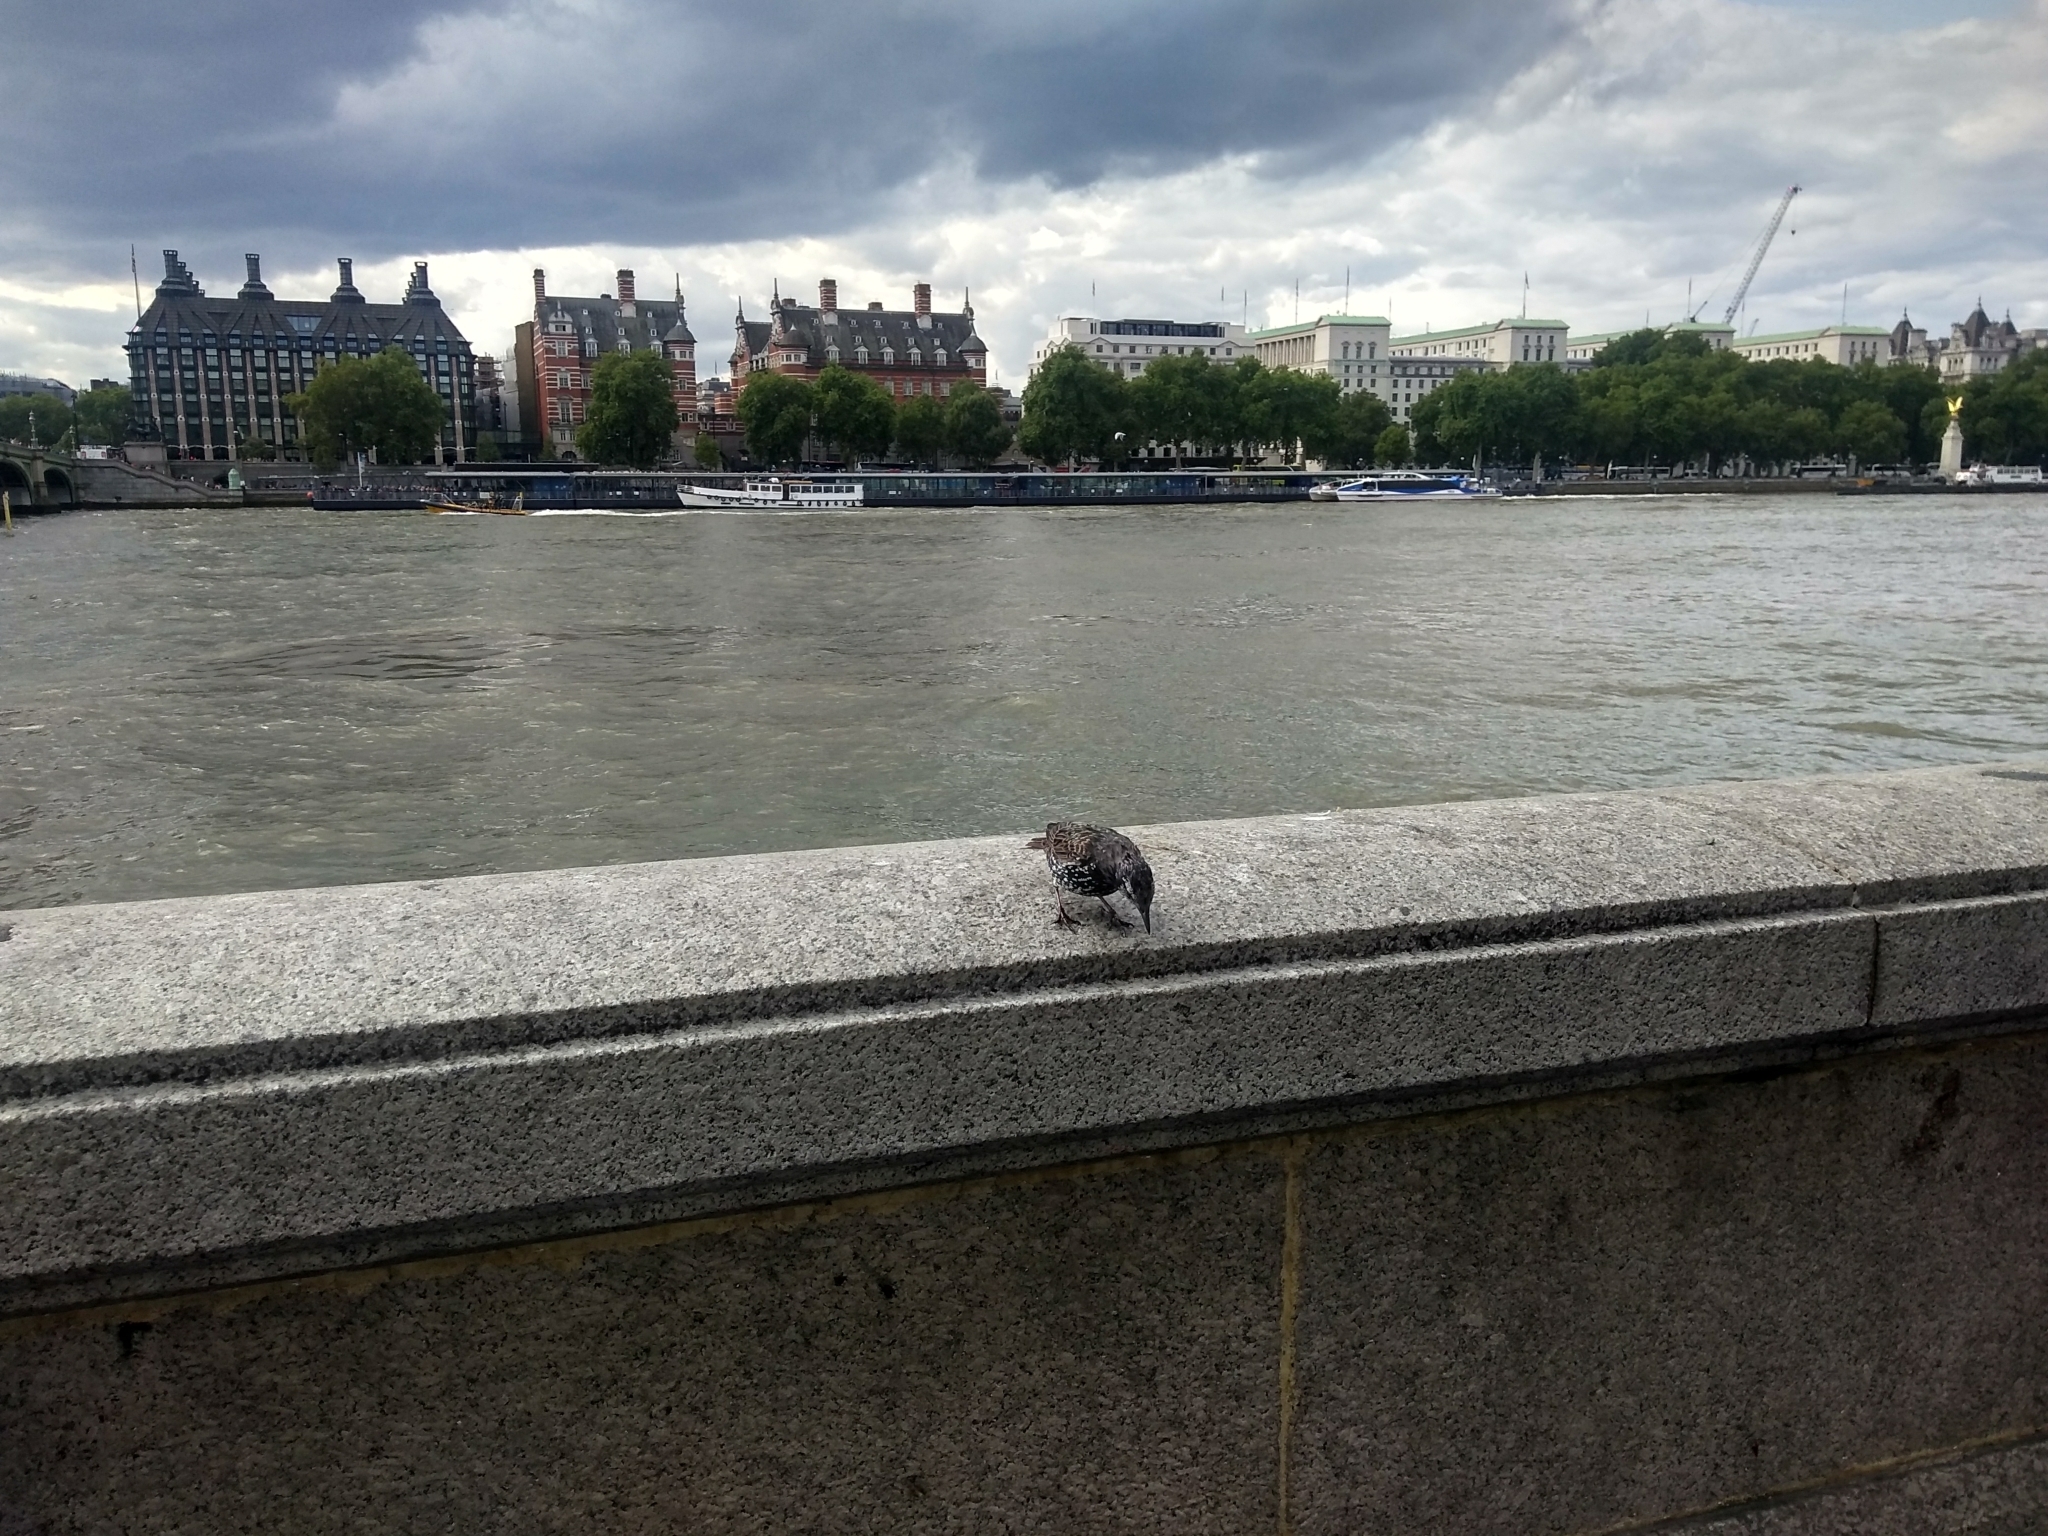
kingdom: Animalia
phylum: Chordata
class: Aves
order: Passeriformes
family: Sturnidae
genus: Sturnus
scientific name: Sturnus vulgaris
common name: Common starling
